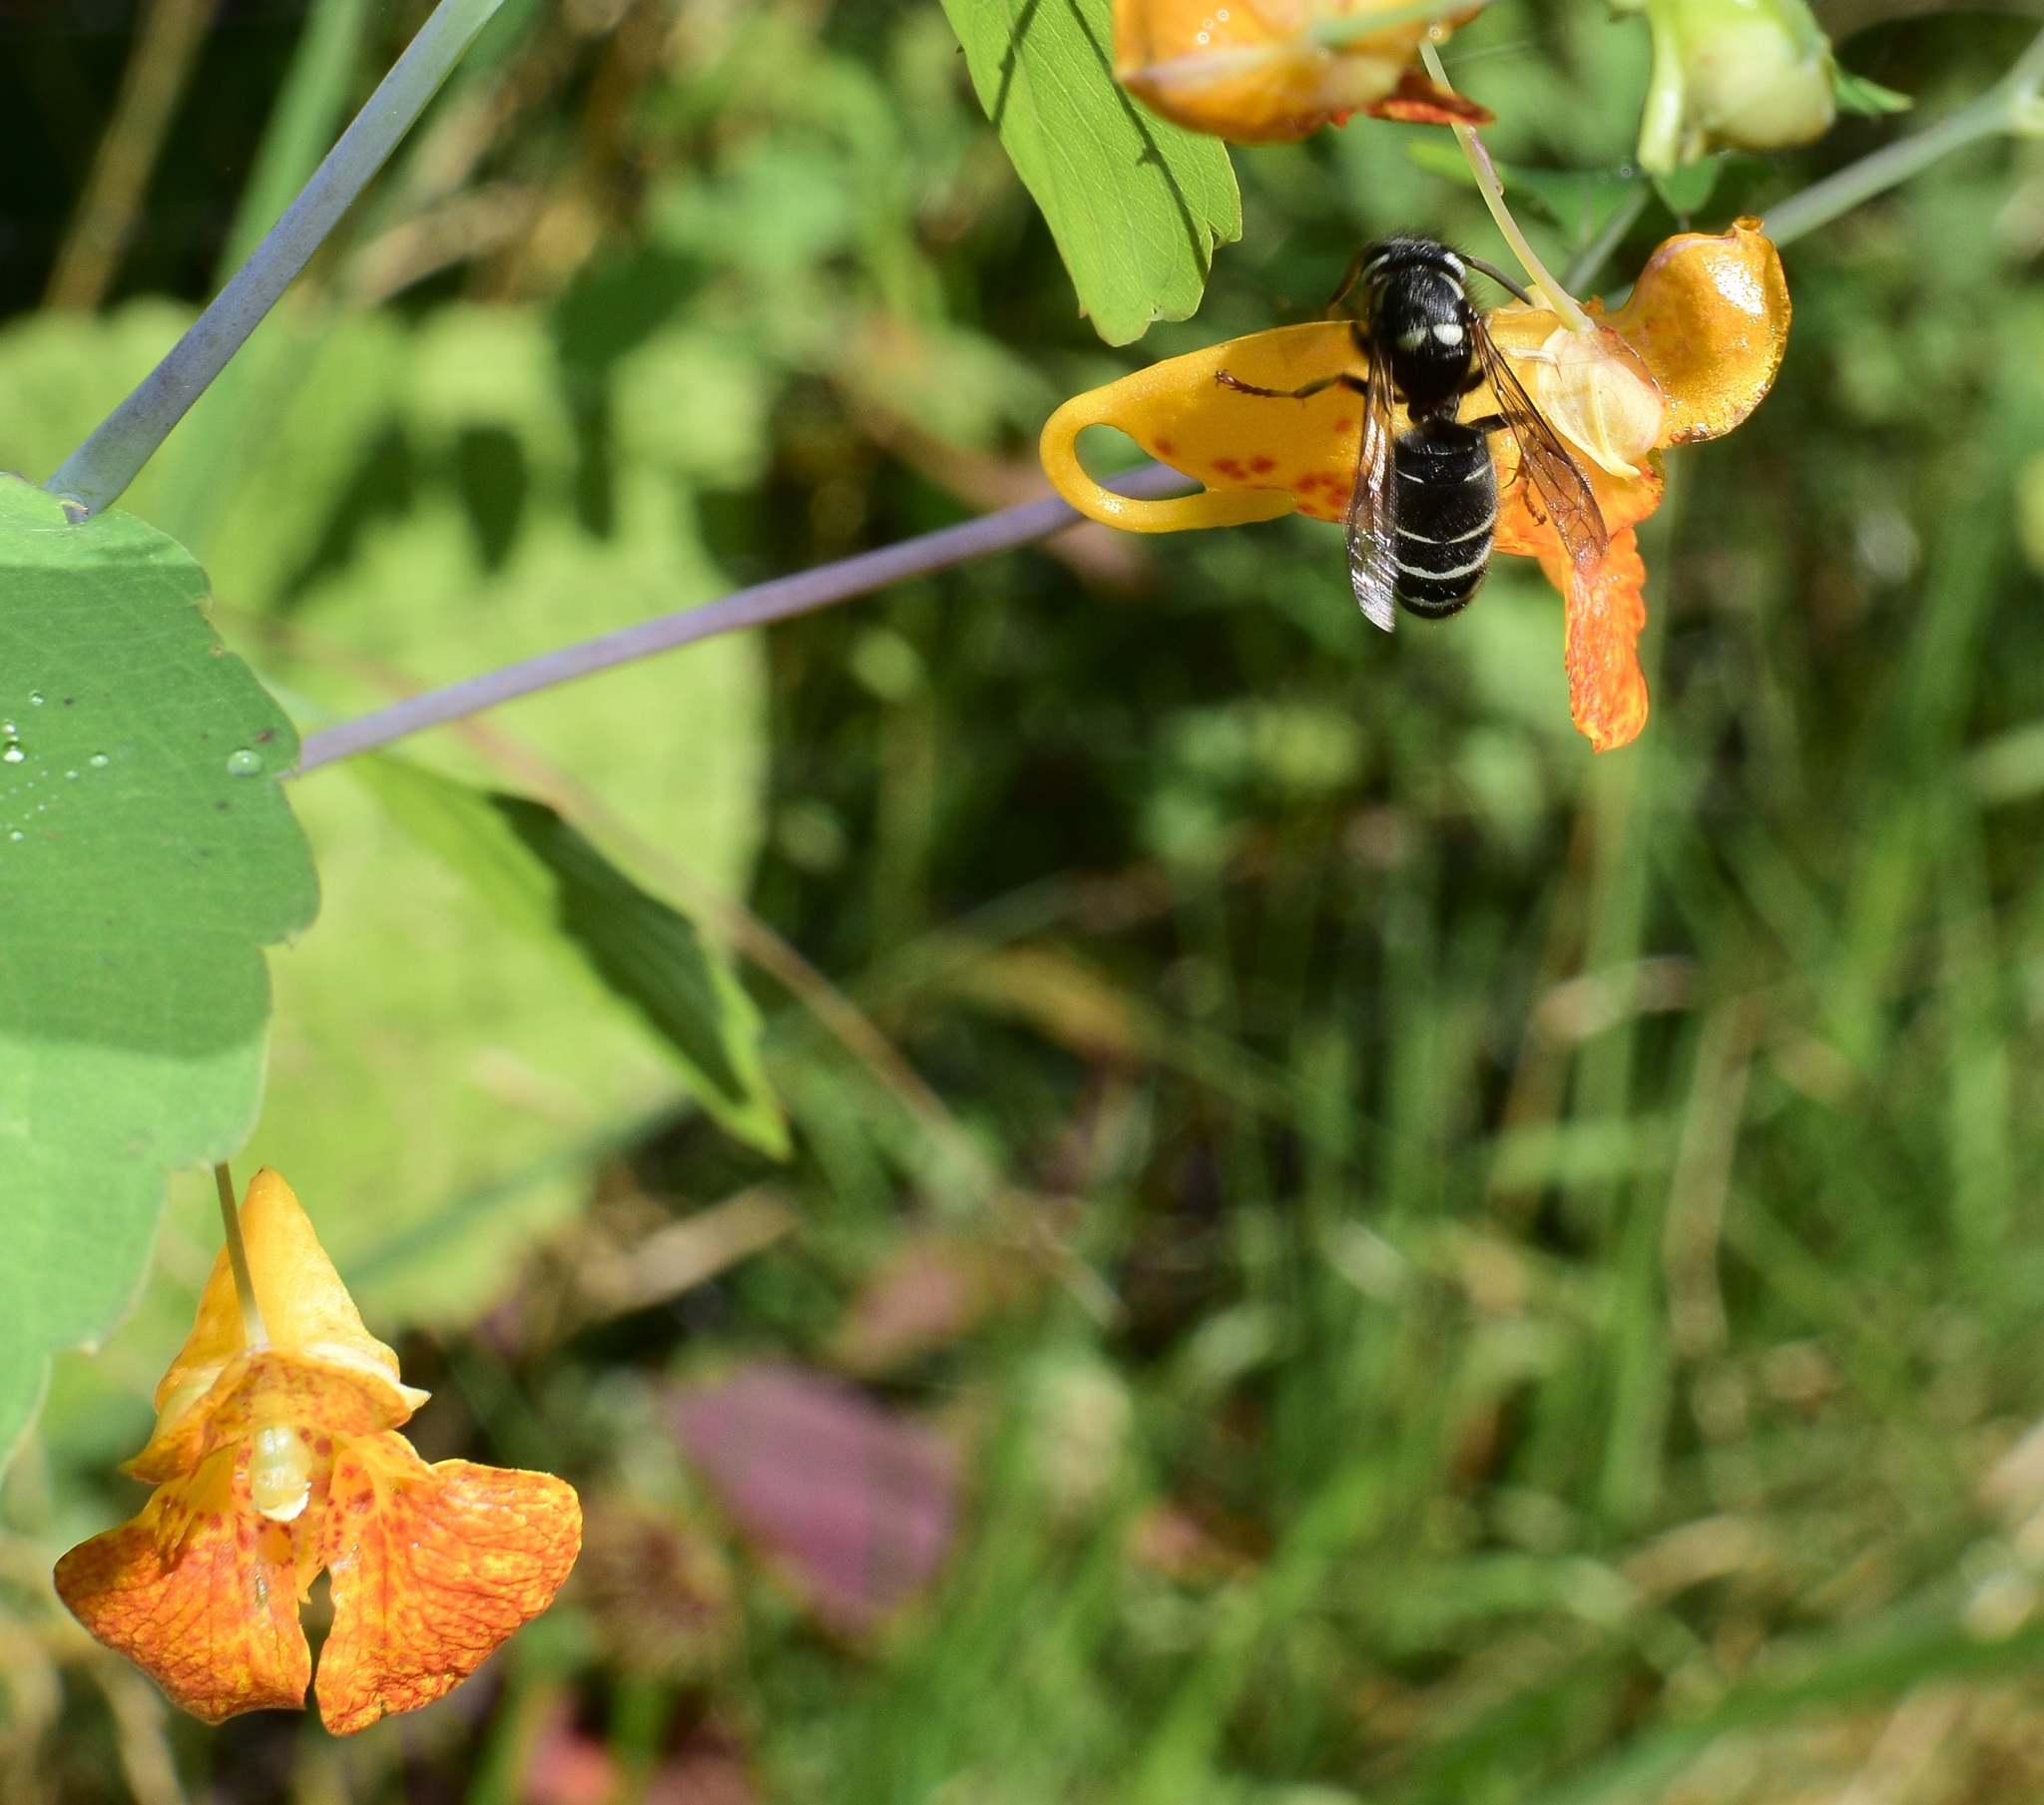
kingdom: Animalia
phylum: Arthropoda
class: Insecta
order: Hymenoptera
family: Vespidae
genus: Vespula
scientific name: Vespula consobrina
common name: Blackjacket
